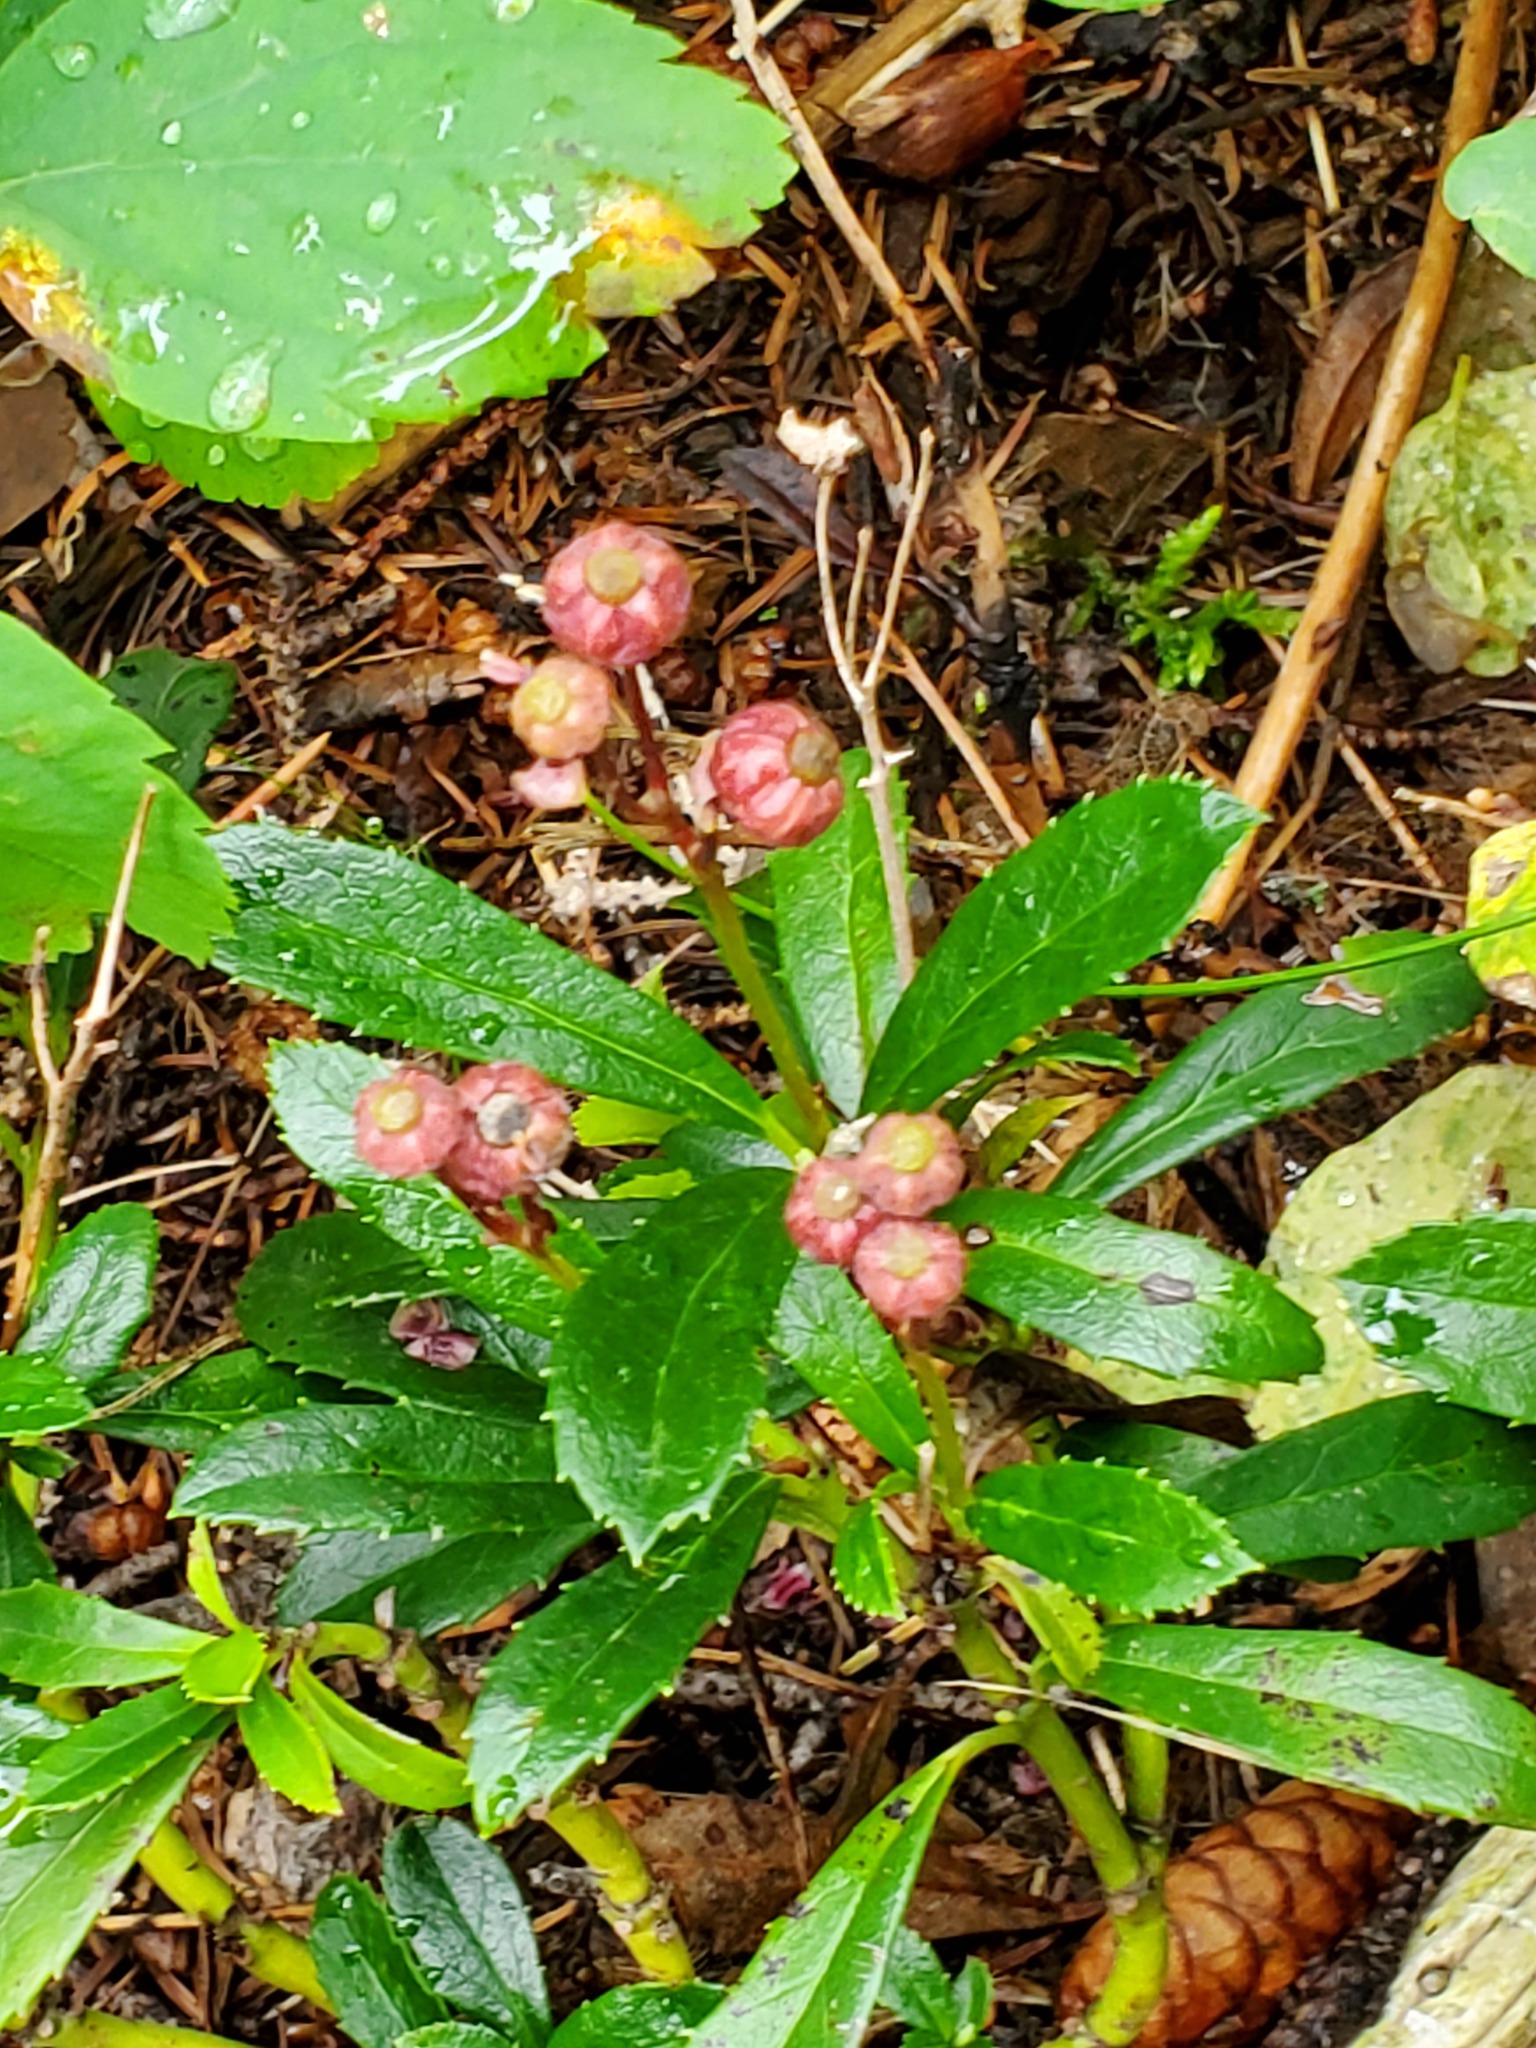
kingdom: Plantae
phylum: Tracheophyta
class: Magnoliopsida
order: Ericales
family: Ericaceae
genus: Chimaphila
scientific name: Chimaphila umbellata
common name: Pipsissewa
